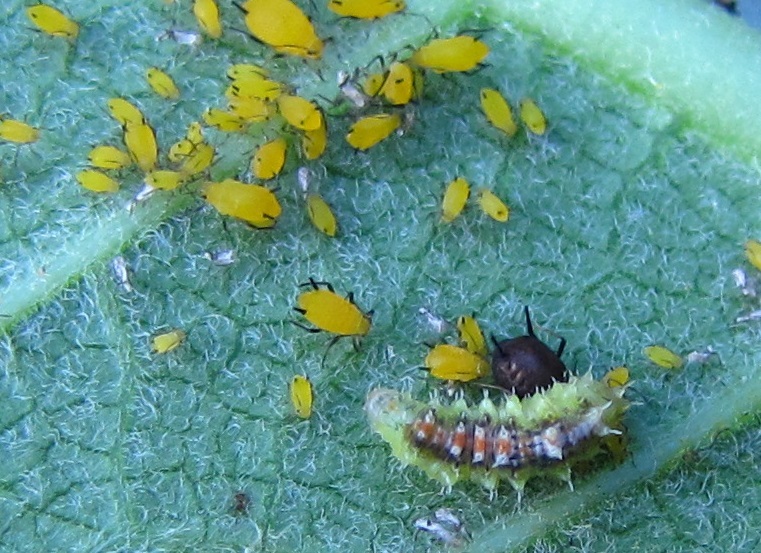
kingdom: Animalia
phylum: Arthropoda
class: Insecta
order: Diptera
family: Syrphidae
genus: Dioprosopa
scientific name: Dioprosopa clavatus
